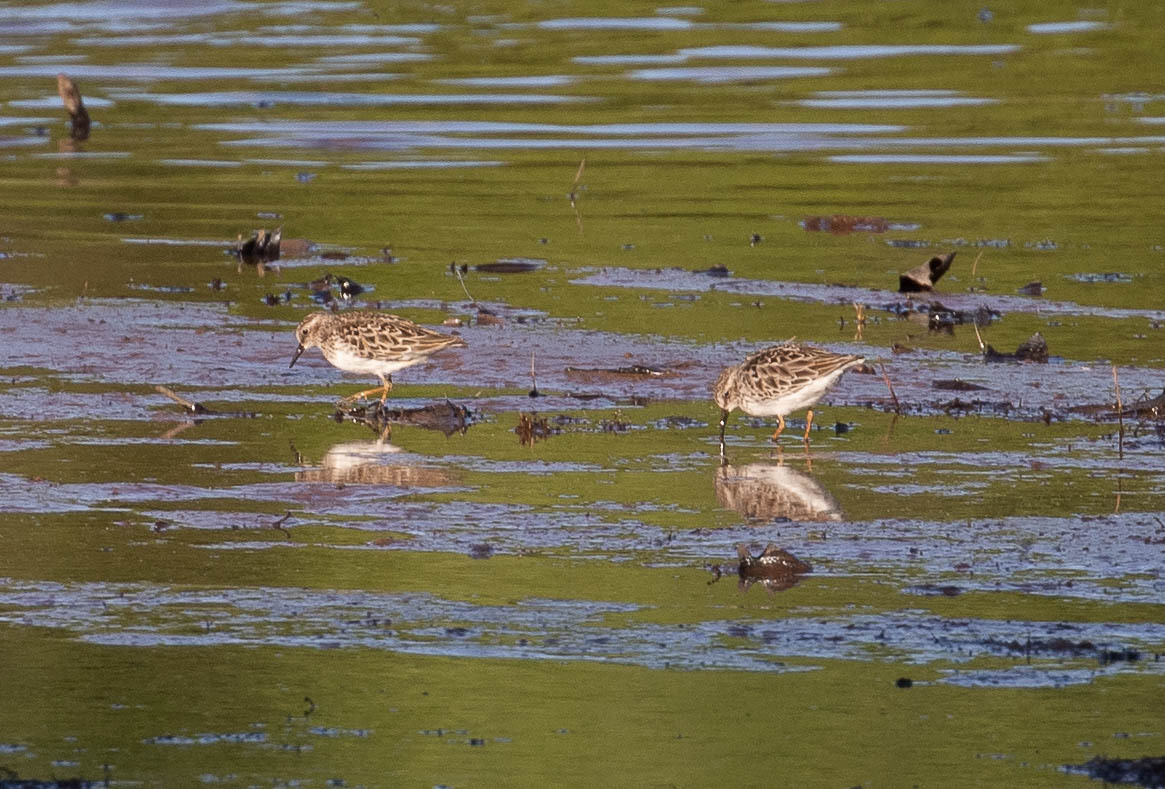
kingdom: Animalia
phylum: Chordata
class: Aves
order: Charadriiformes
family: Scolopacidae
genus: Calidris
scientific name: Calidris minutilla
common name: Least sandpiper
